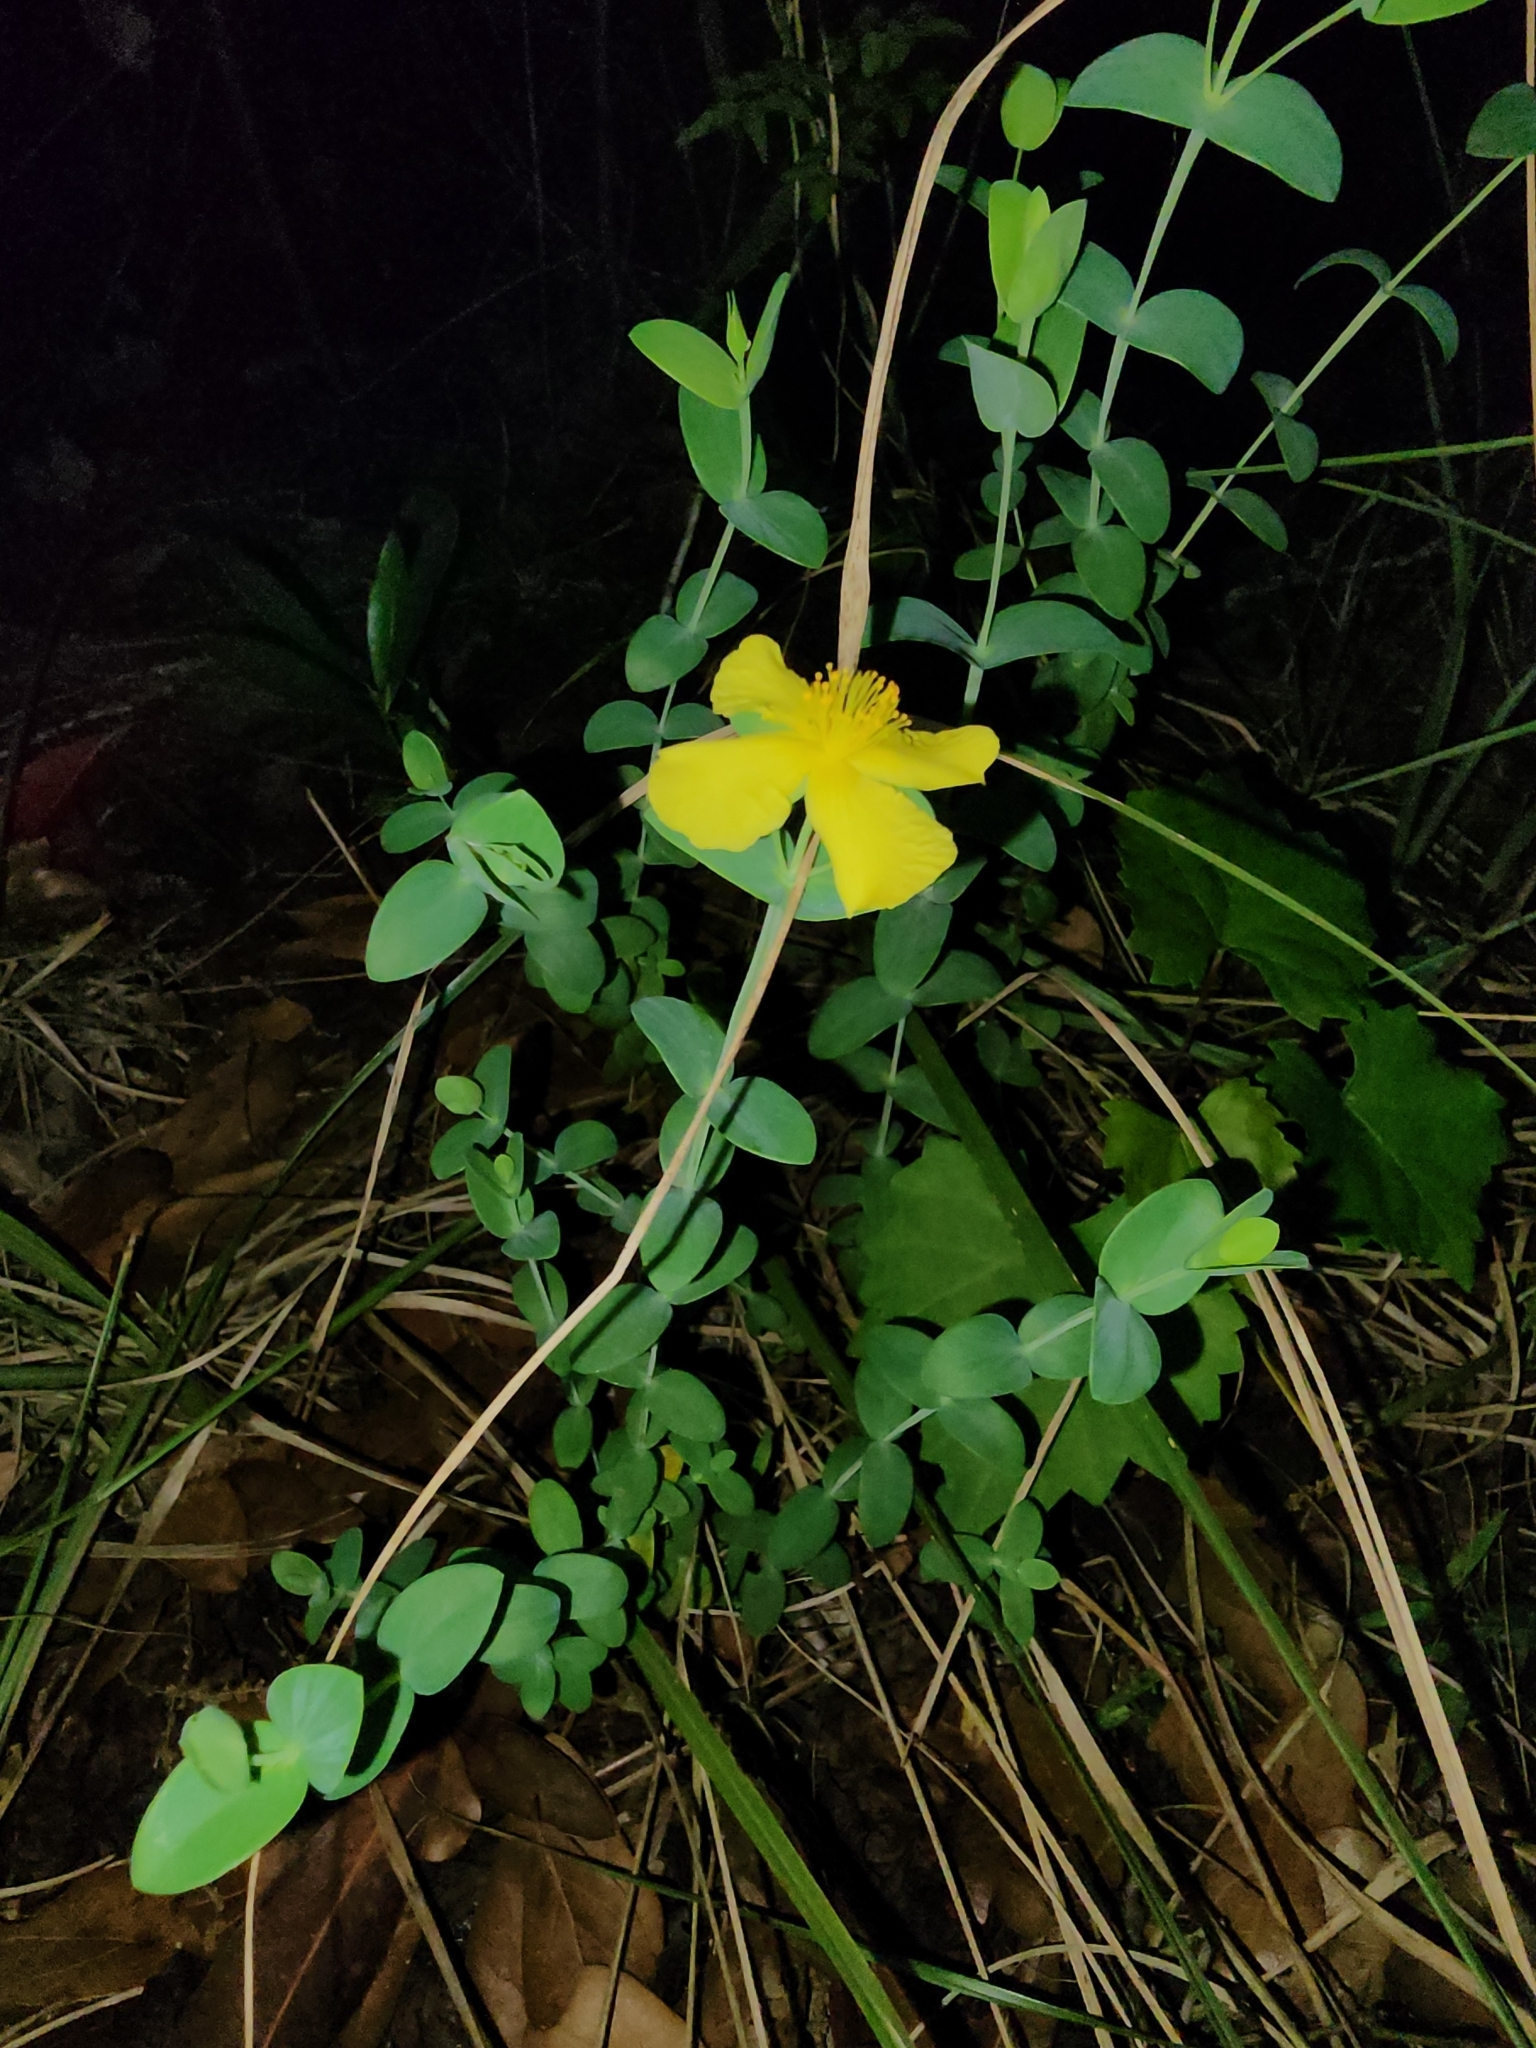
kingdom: Plantae
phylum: Tracheophyta
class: Magnoliopsida
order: Malpighiales
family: Hypericaceae
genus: Hypericum
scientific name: Hypericum tetrapetalum
